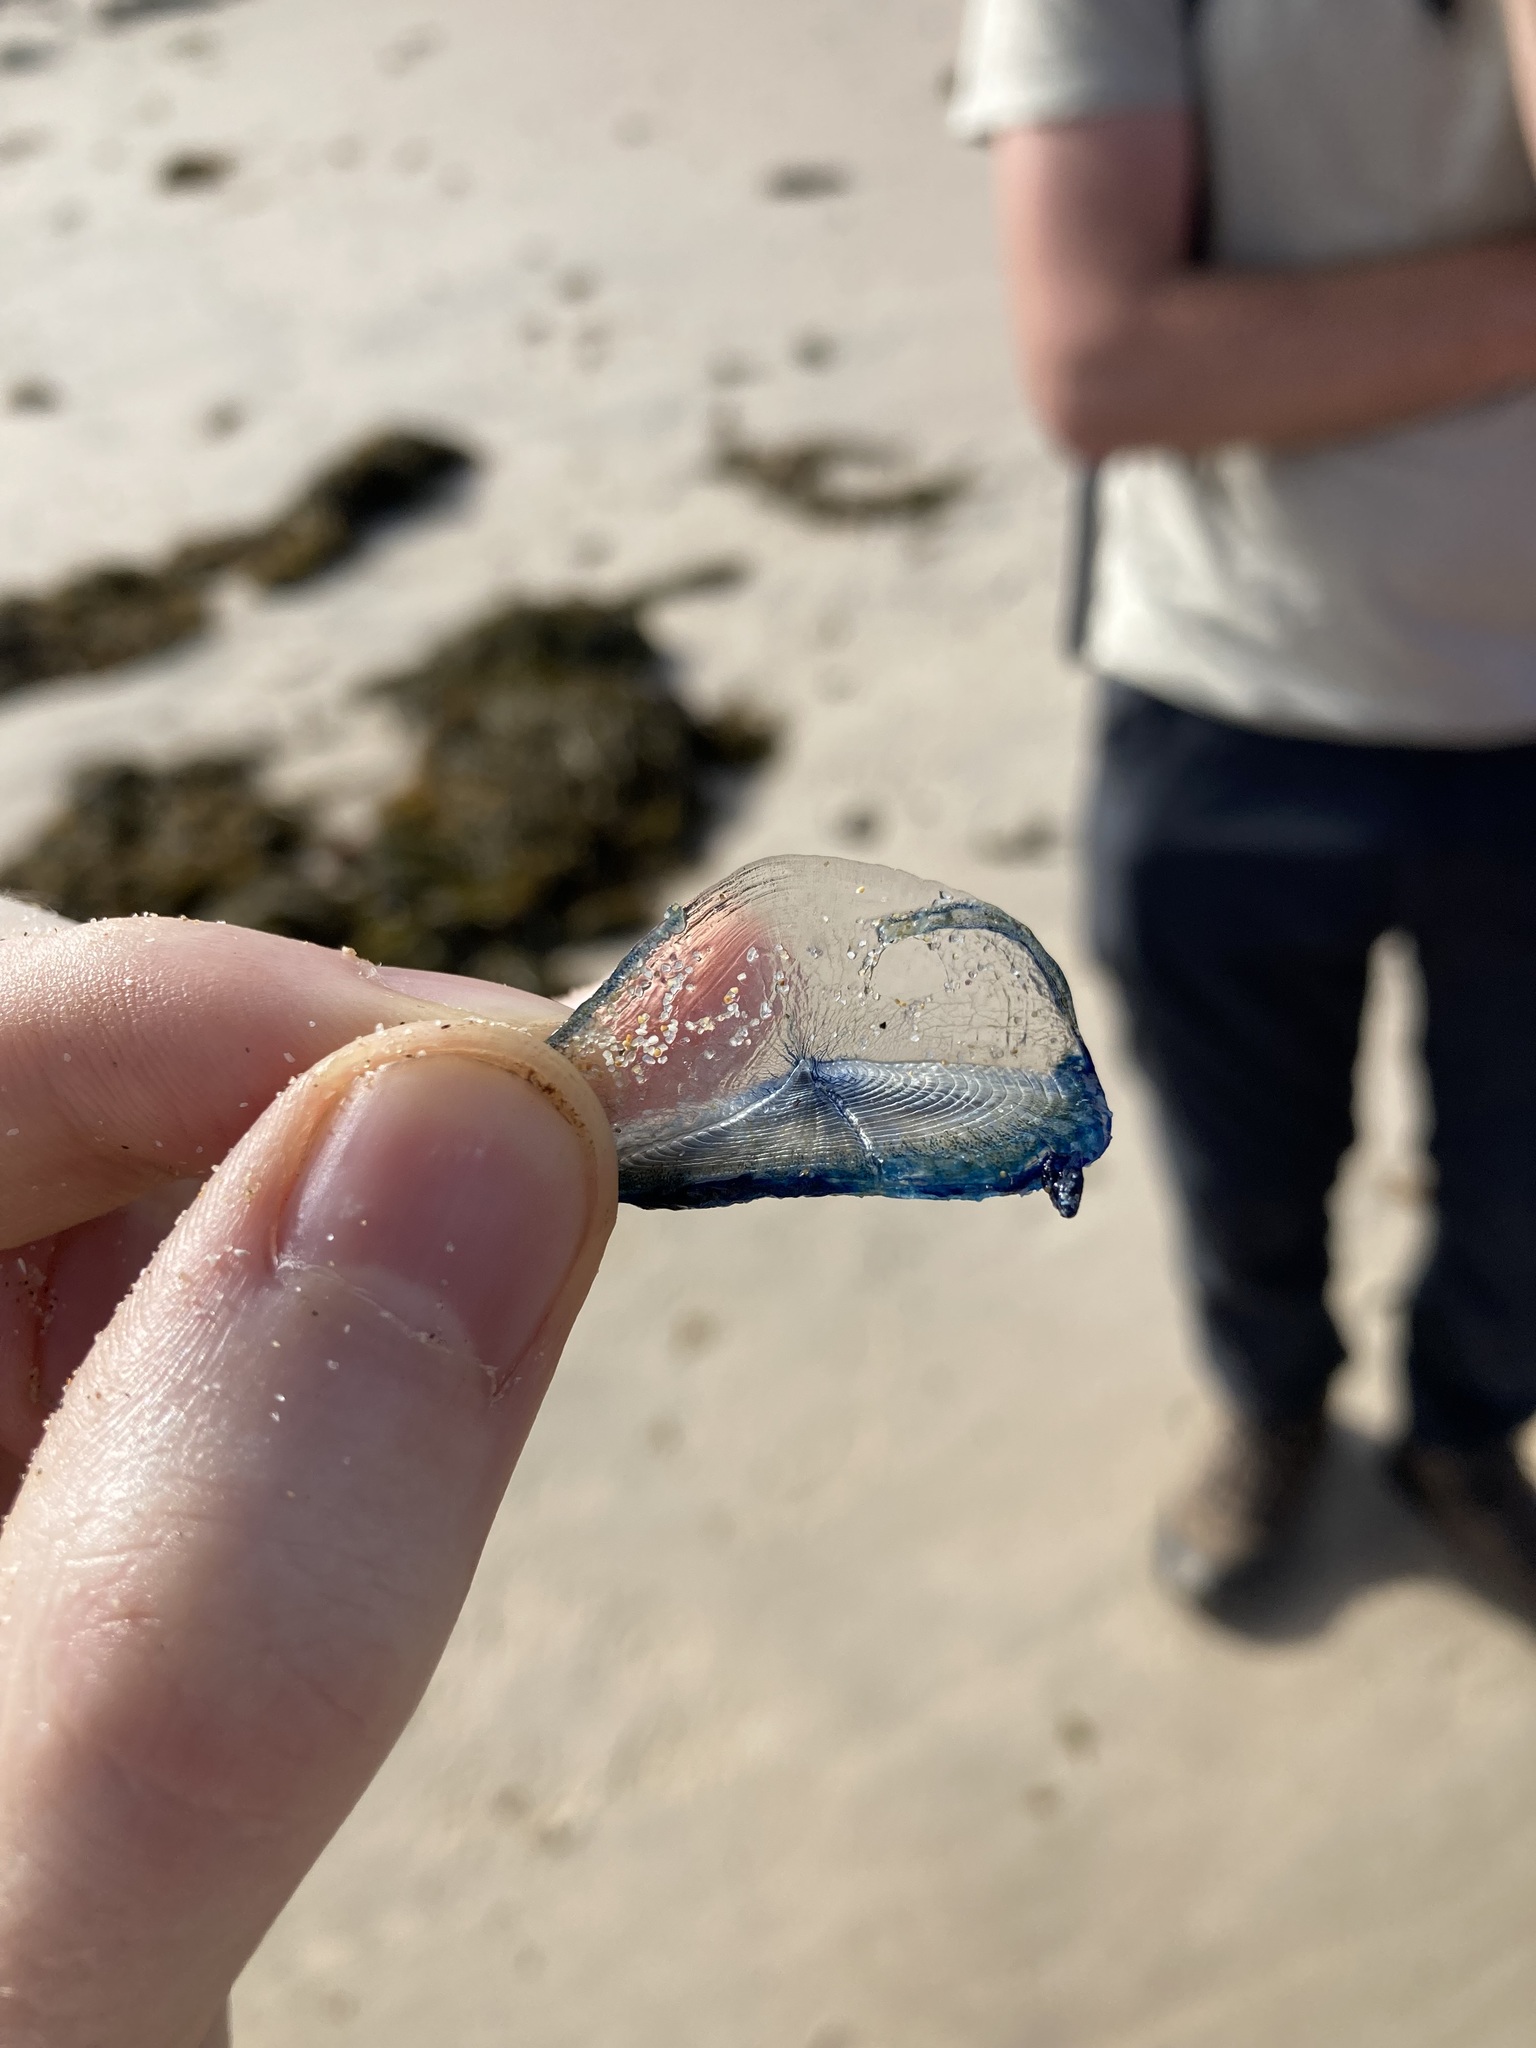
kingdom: Animalia
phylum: Cnidaria
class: Hydrozoa
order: Anthoathecata
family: Porpitidae
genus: Velella
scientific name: Velella velella
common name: By-the-wind-sailor
